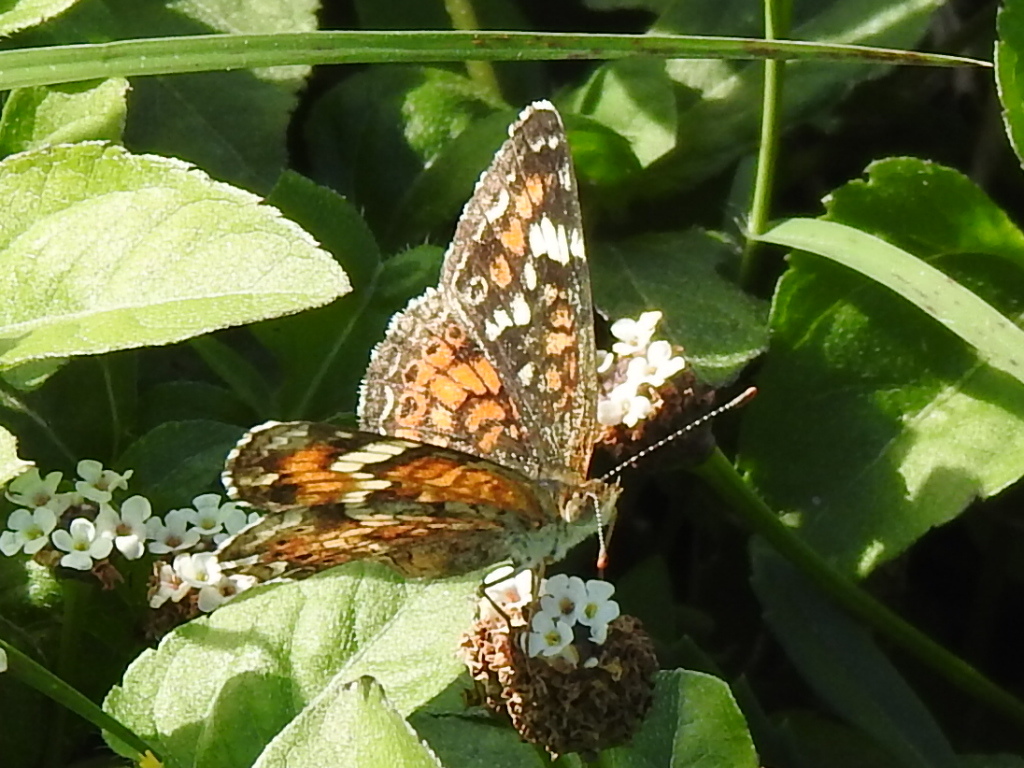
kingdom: Animalia
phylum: Arthropoda
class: Insecta
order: Lepidoptera
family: Nymphalidae
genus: Phyciodes
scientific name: Phyciodes phaon
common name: Phaon crescent
